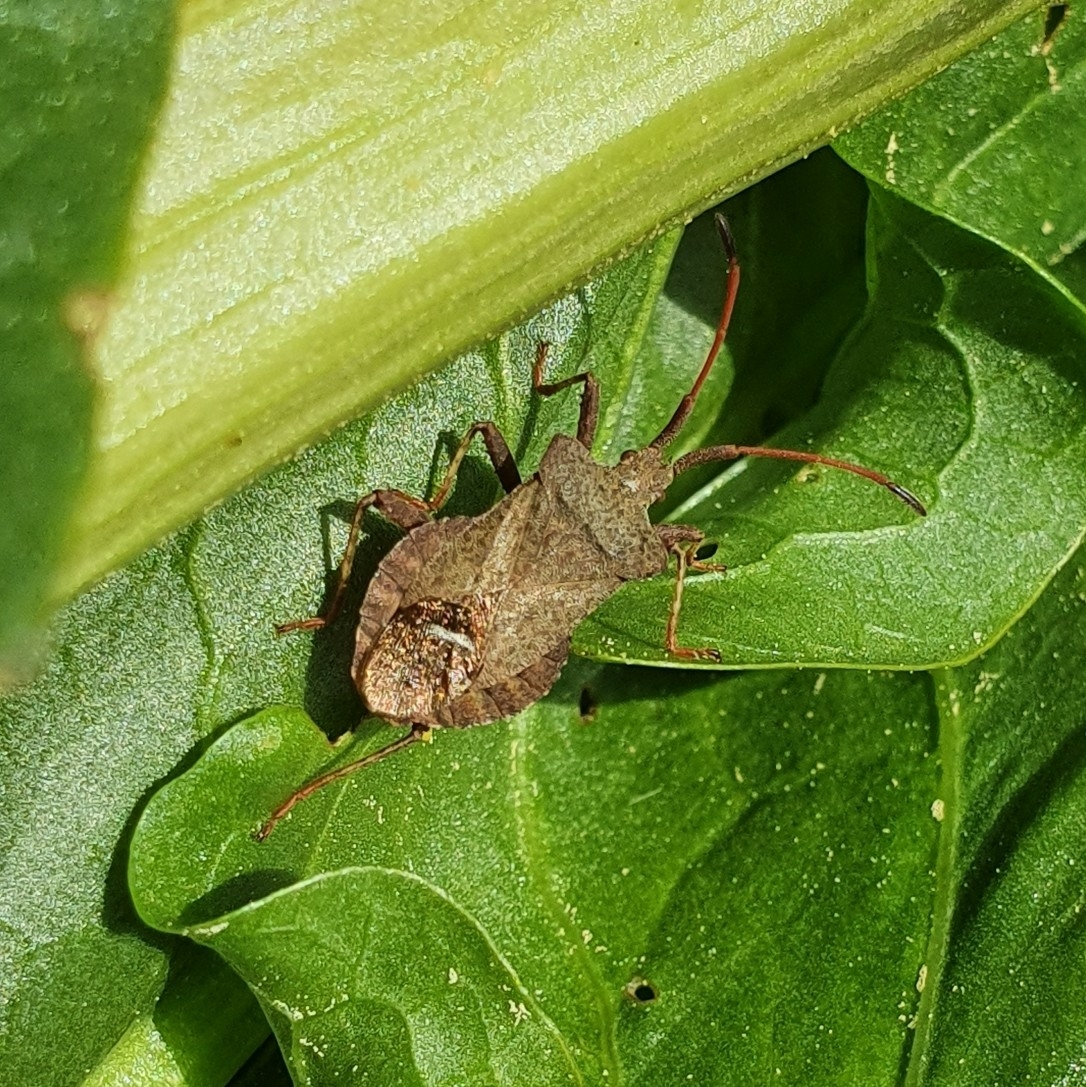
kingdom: Animalia
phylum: Arthropoda
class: Insecta
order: Hemiptera
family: Coreidae
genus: Coreus
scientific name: Coreus marginatus
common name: Dock bug
